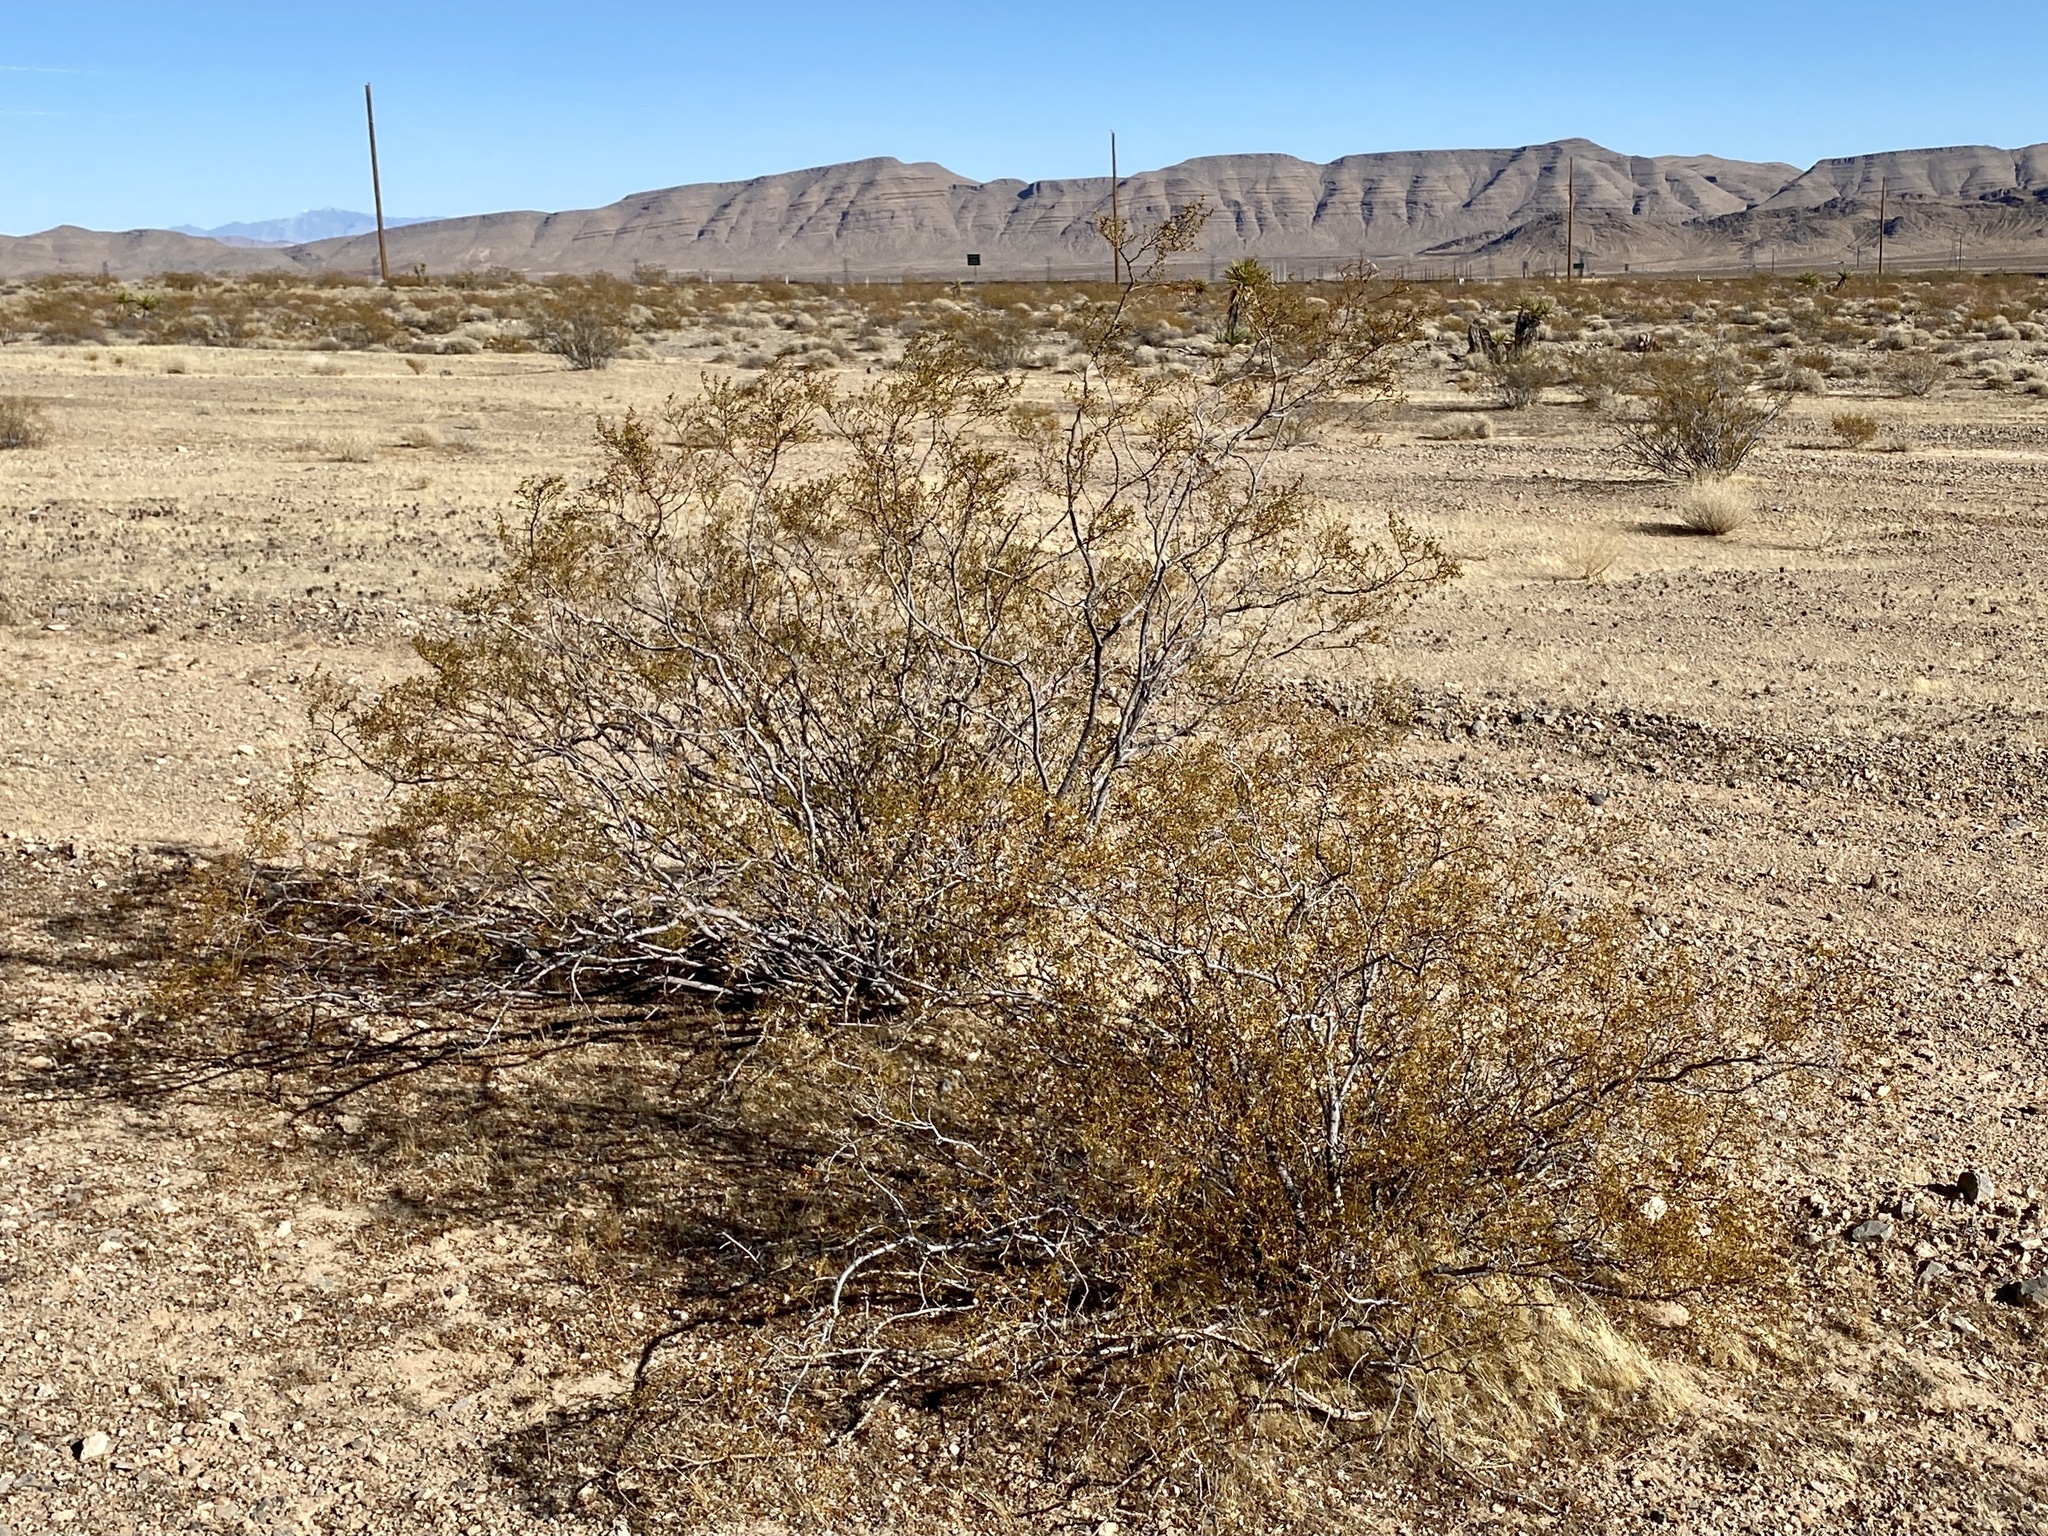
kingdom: Plantae
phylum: Tracheophyta
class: Magnoliopsida
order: Zygophyllales
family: Zygophyllaceae
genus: Larrea
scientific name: Larrea tridentata
